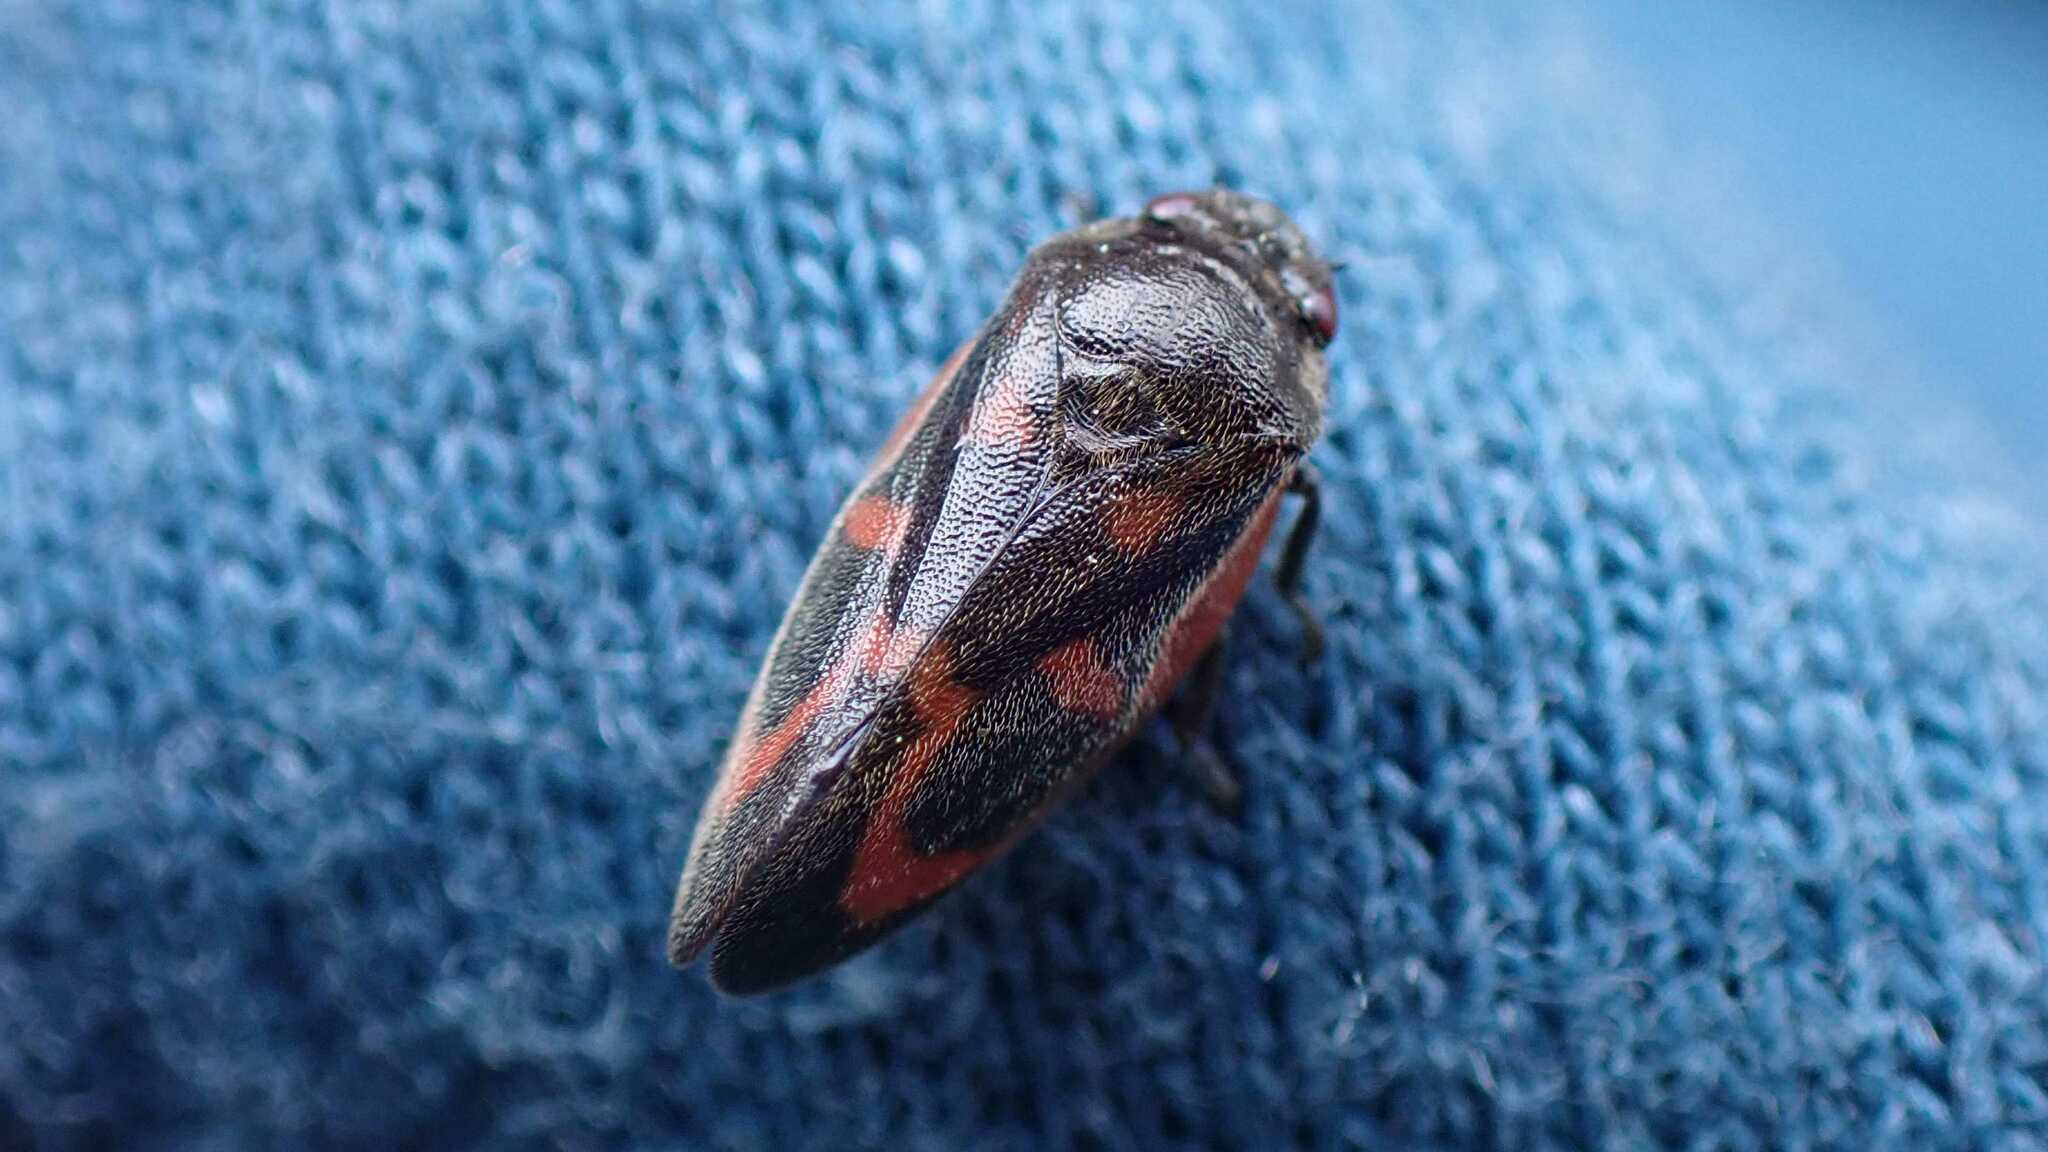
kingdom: Animalia
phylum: Arthropoda
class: Insecta
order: Hemiptera
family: Cercopidae
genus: Haematoloma
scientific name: Haematoloma dorsata
